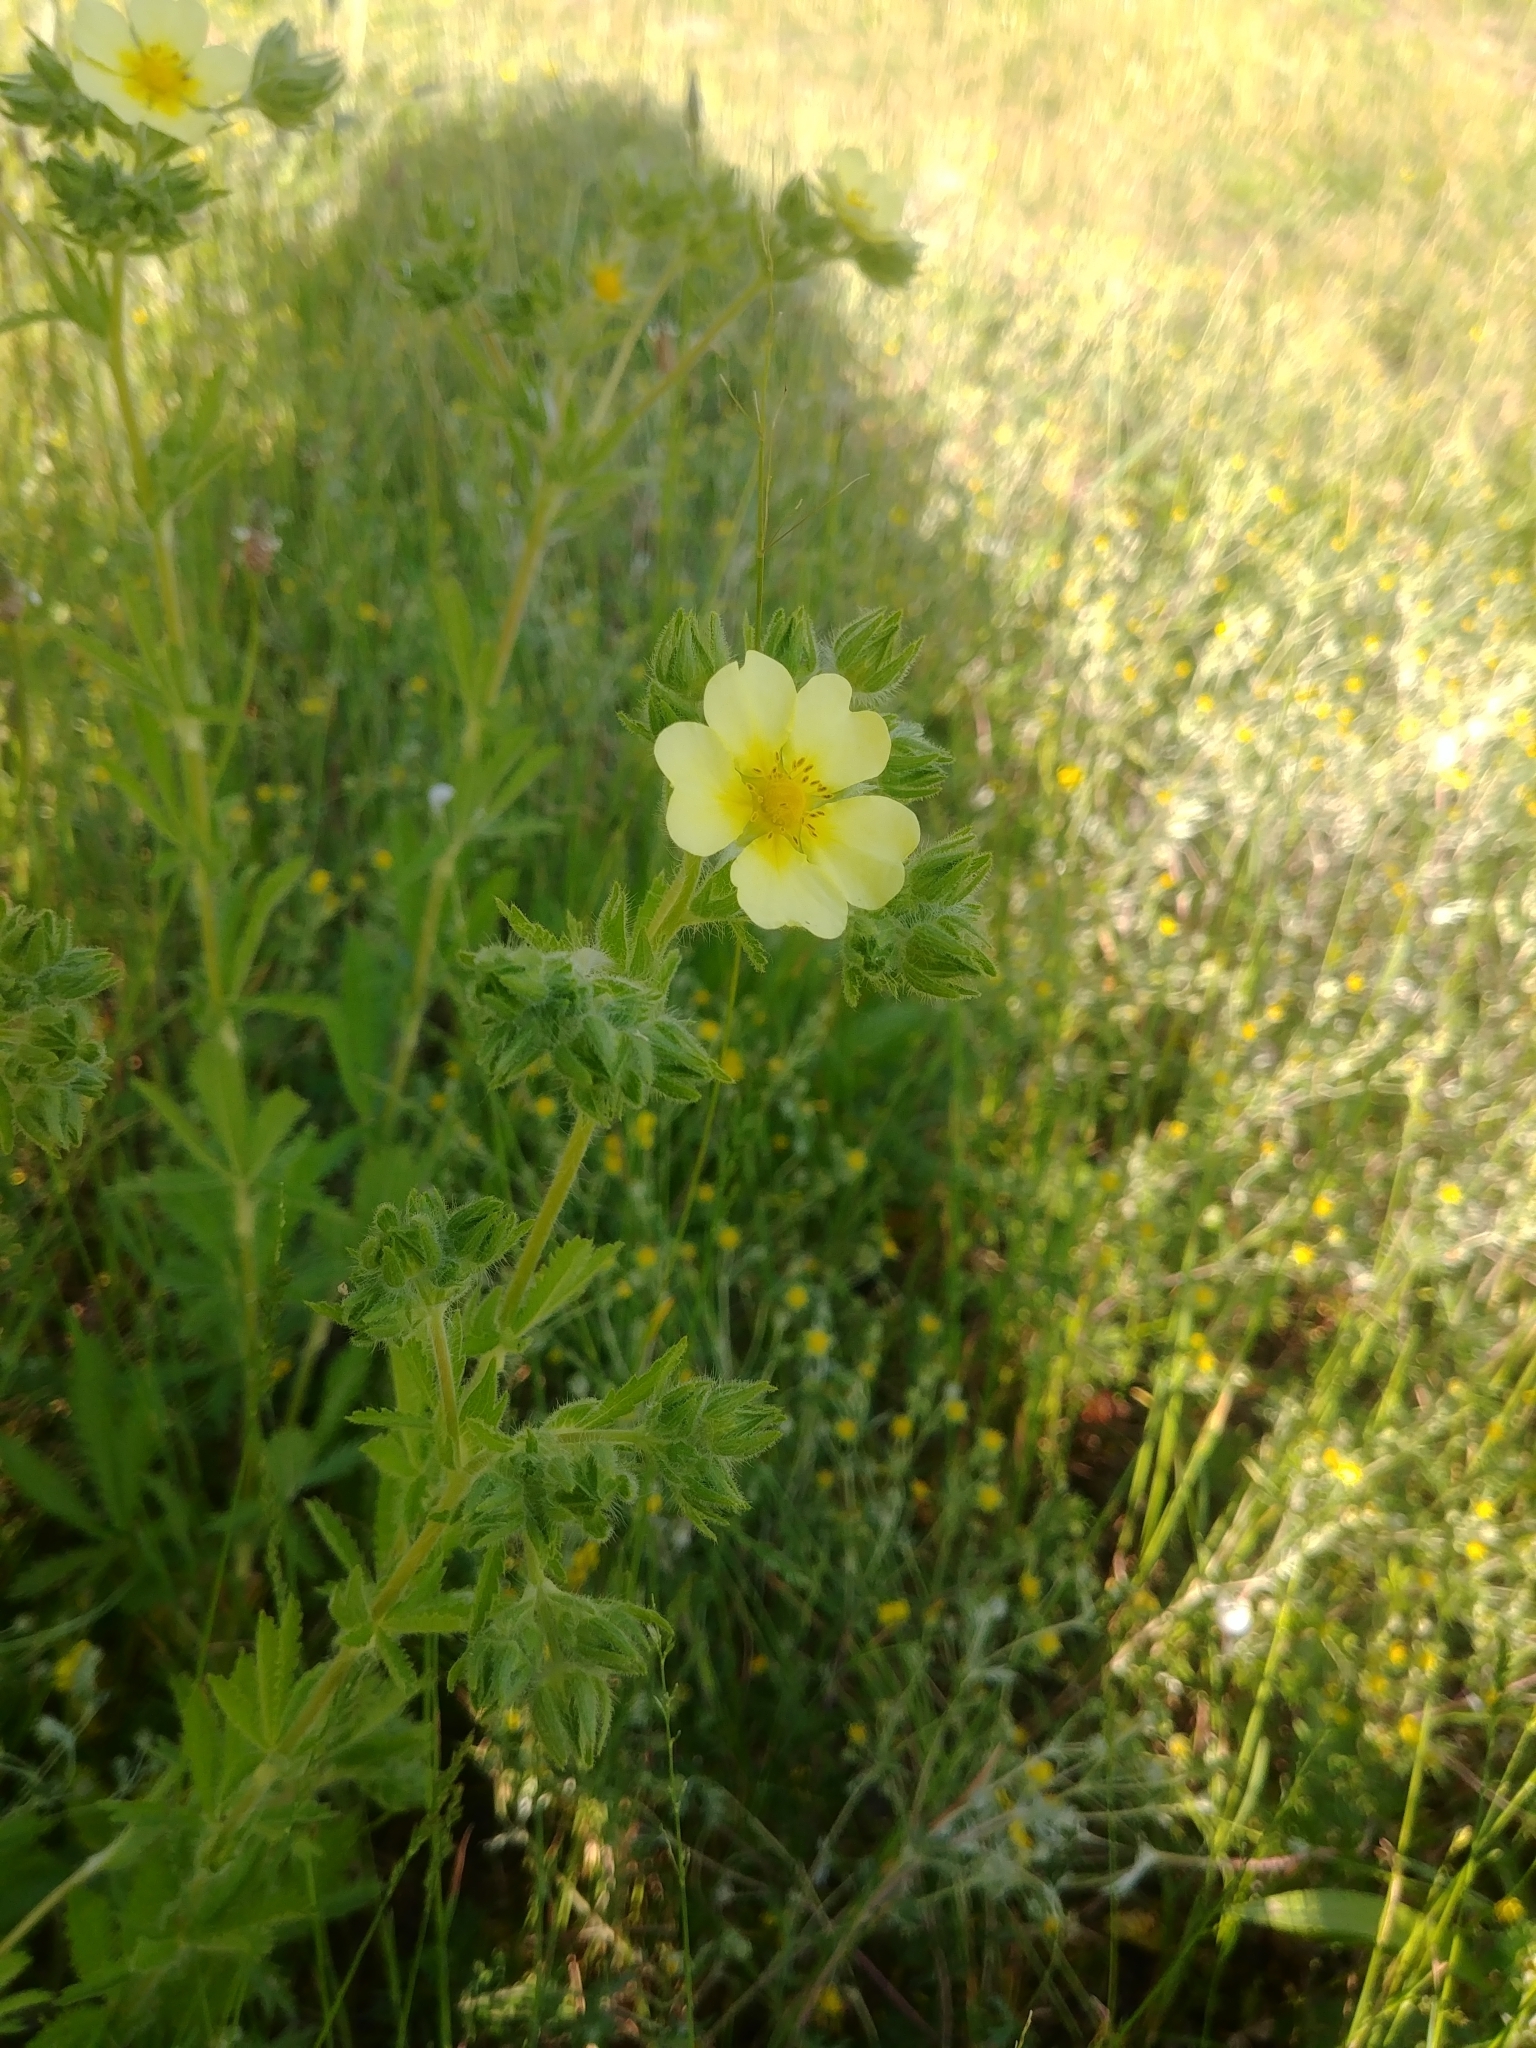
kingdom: Plantae
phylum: Tracheophyta
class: Magnoliopsida
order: Rosales
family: Rosaceae
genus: Potentilla
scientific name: Potentilla recta
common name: Sulphur cinquefoil
